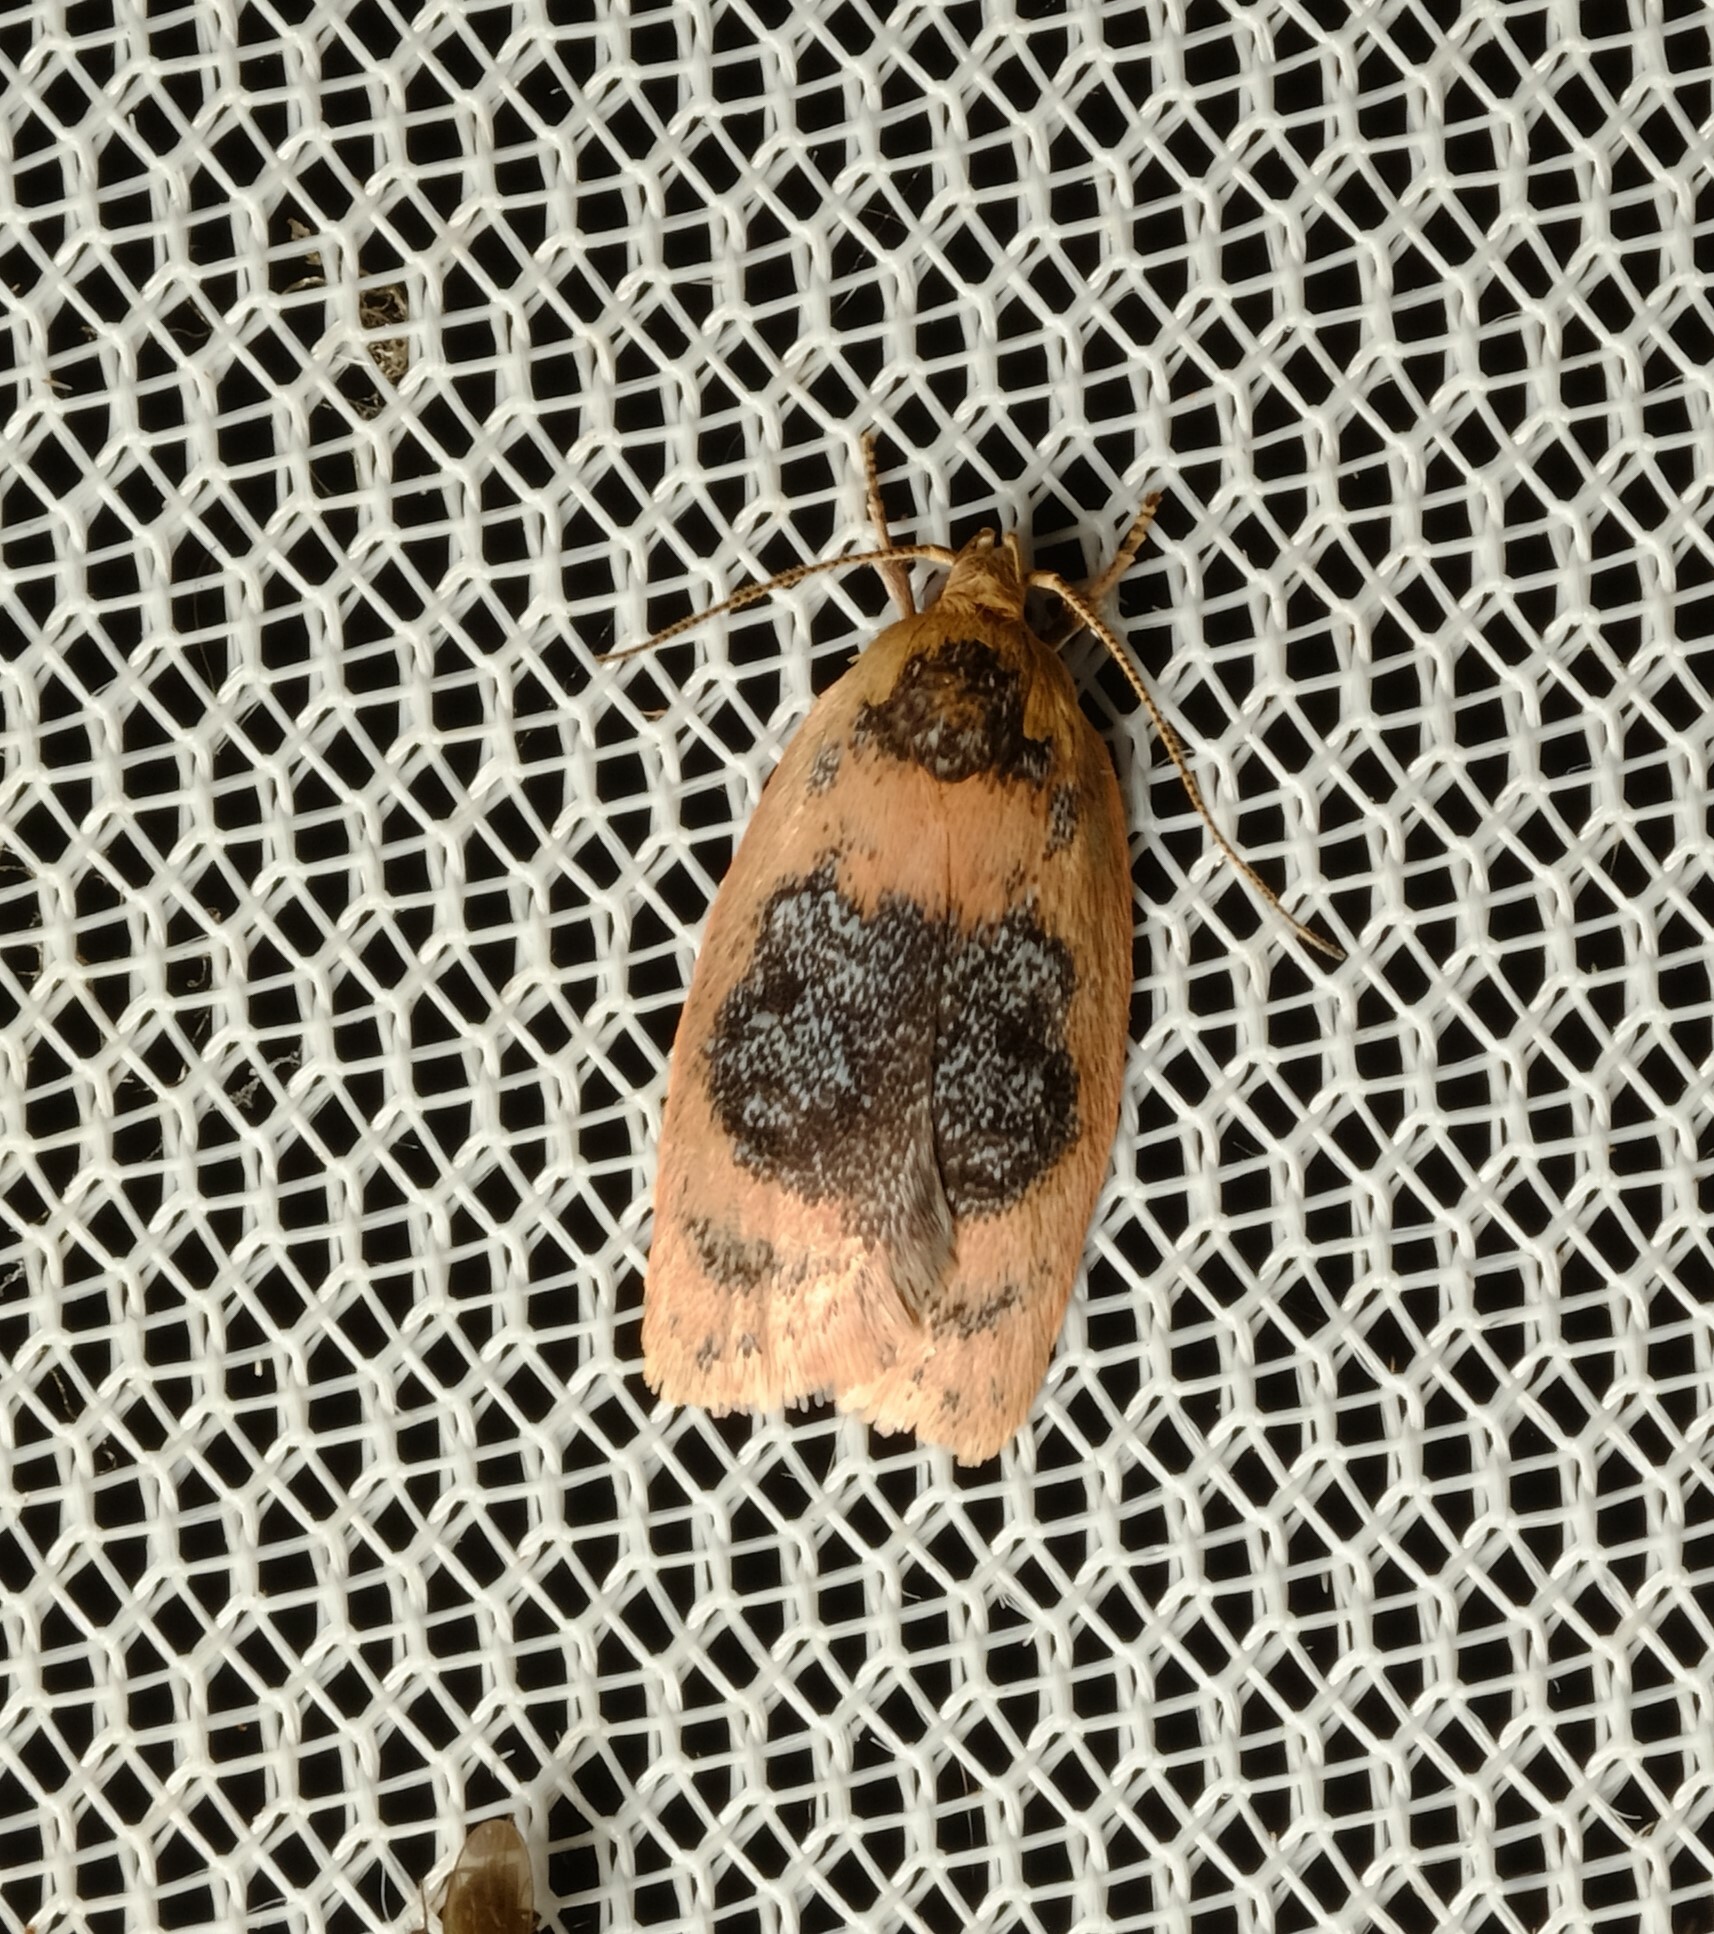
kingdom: Animalia
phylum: Arthropoda
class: Insecta
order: Lepidoptera
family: Oecophoridae
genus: Garrha
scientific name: Garrha ocellifera
